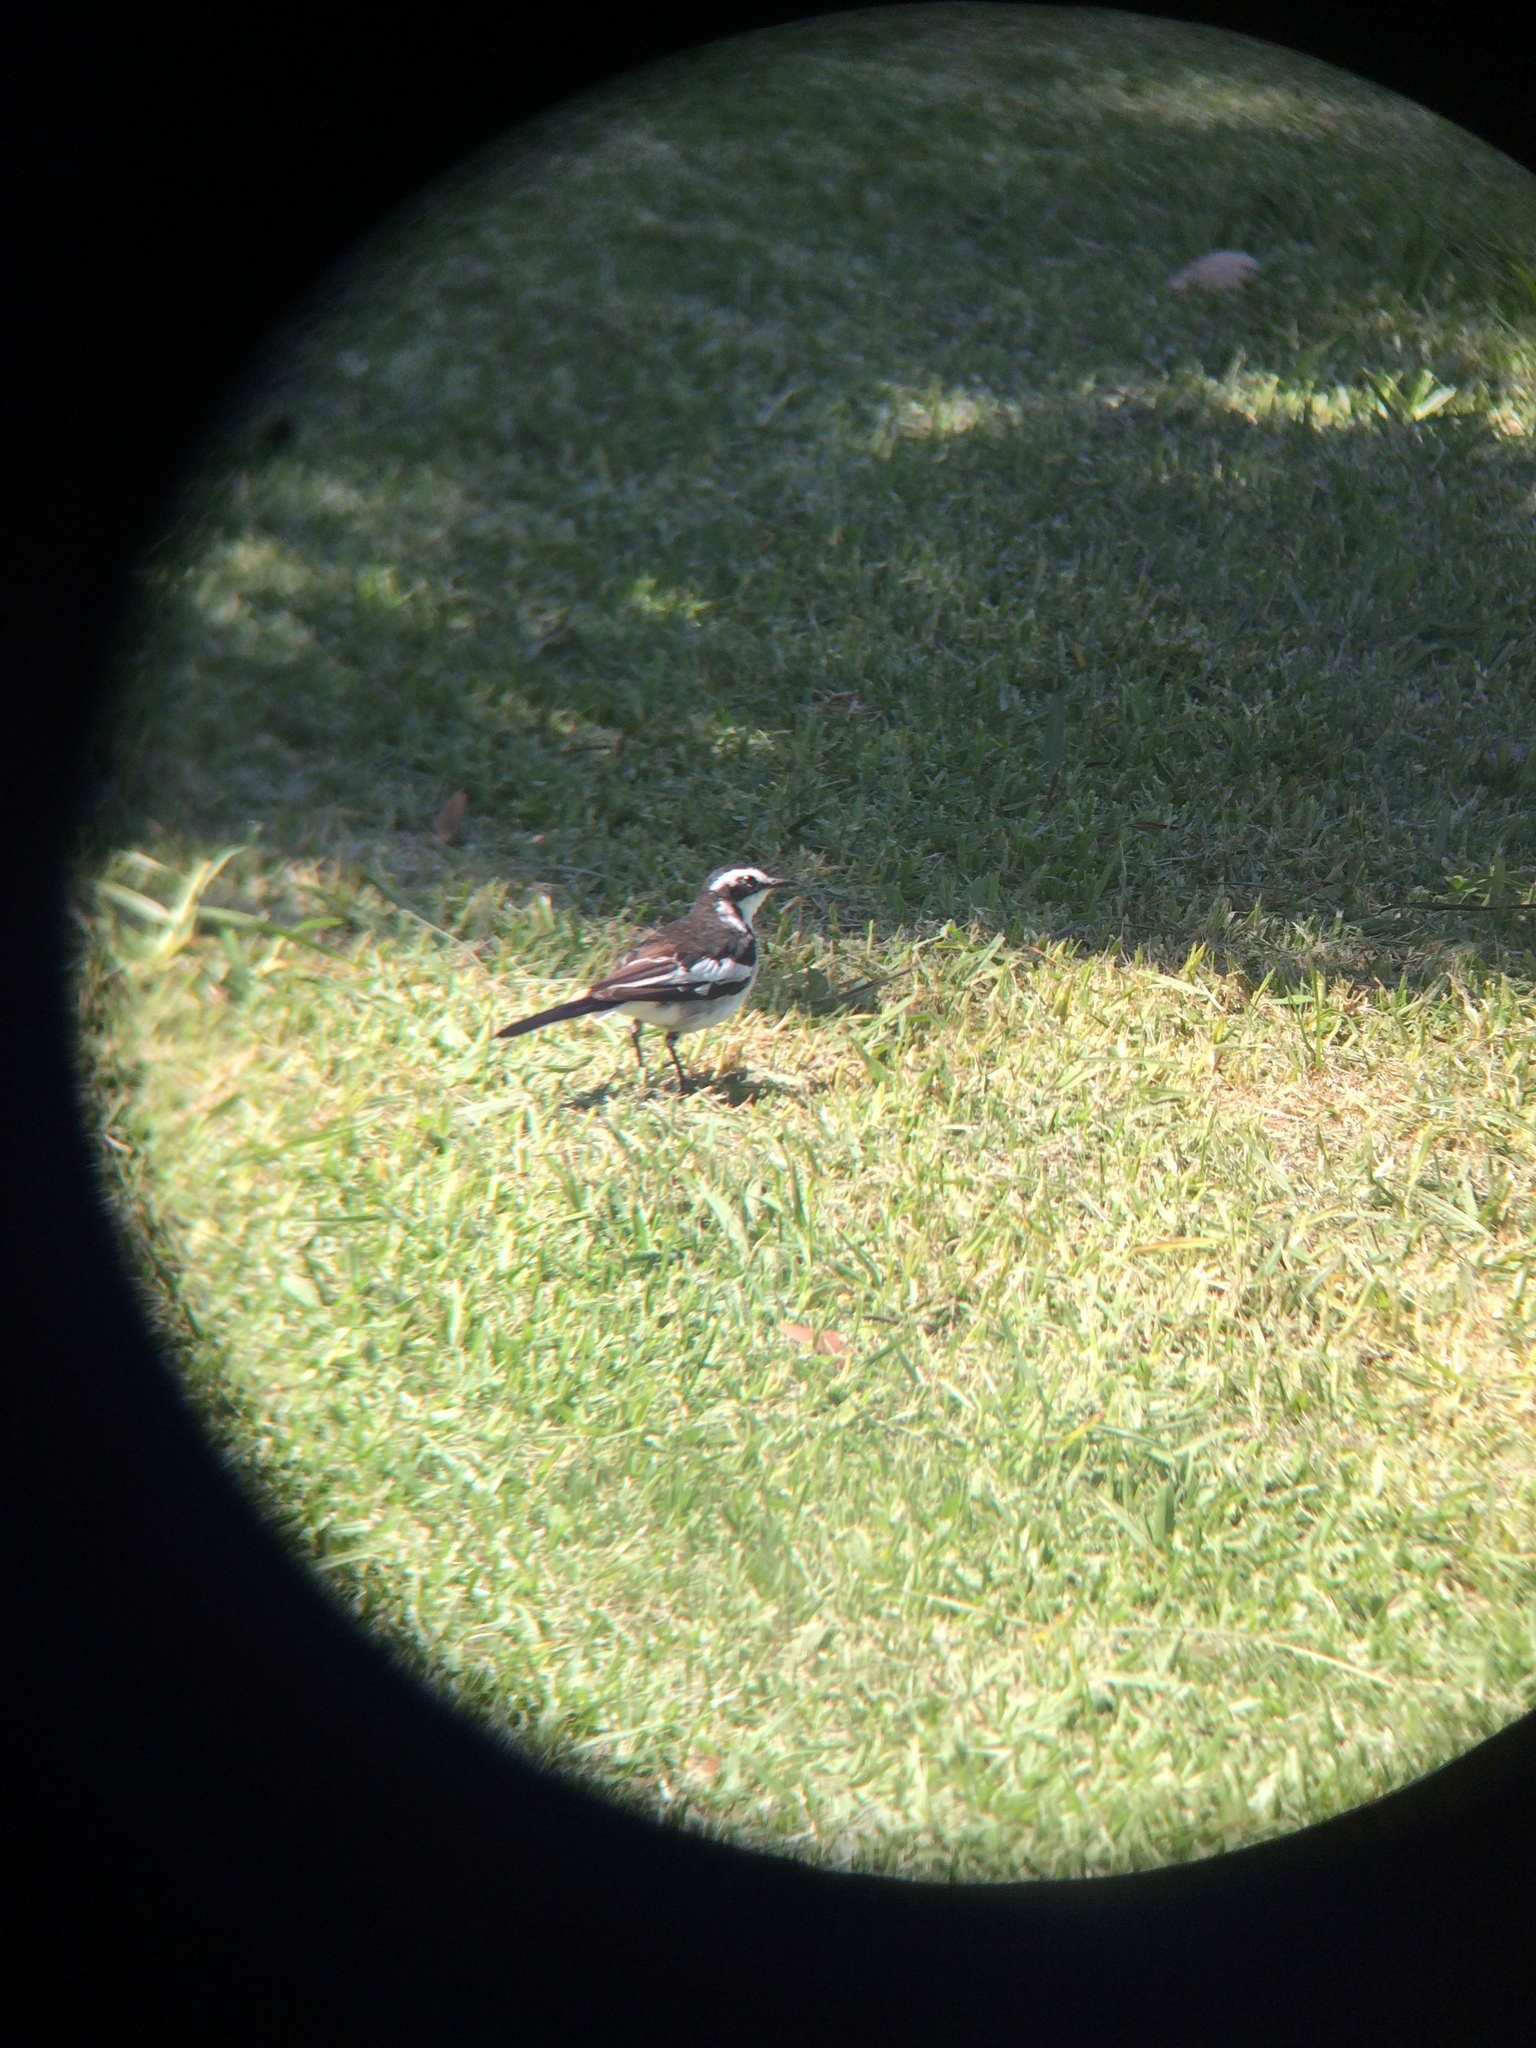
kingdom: Animalia
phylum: Chordata
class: Aves
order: Passeriformes
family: Motacillidae
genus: Motacilla
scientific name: Motacilla aguimp
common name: African pied wagtail
